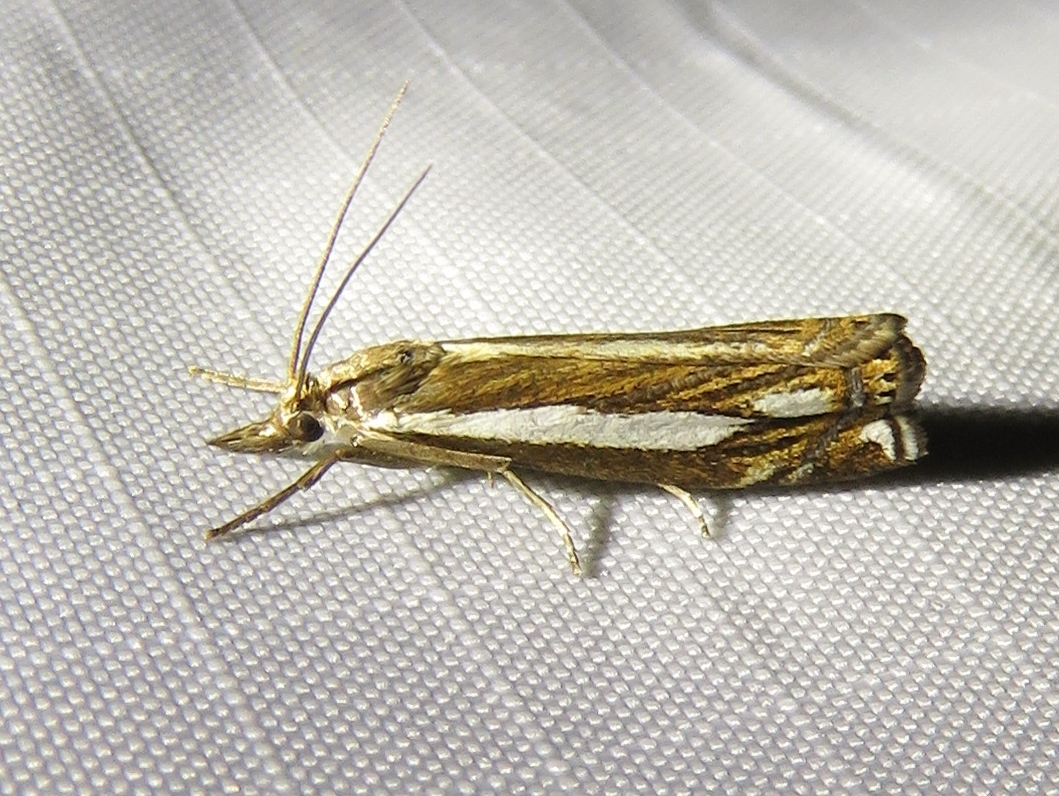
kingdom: Animalia
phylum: Arthropoda
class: Insecta
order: Lepidoptera
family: Crambidae
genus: Crambus
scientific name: Crambus ericella
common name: Heath grass-veneer
